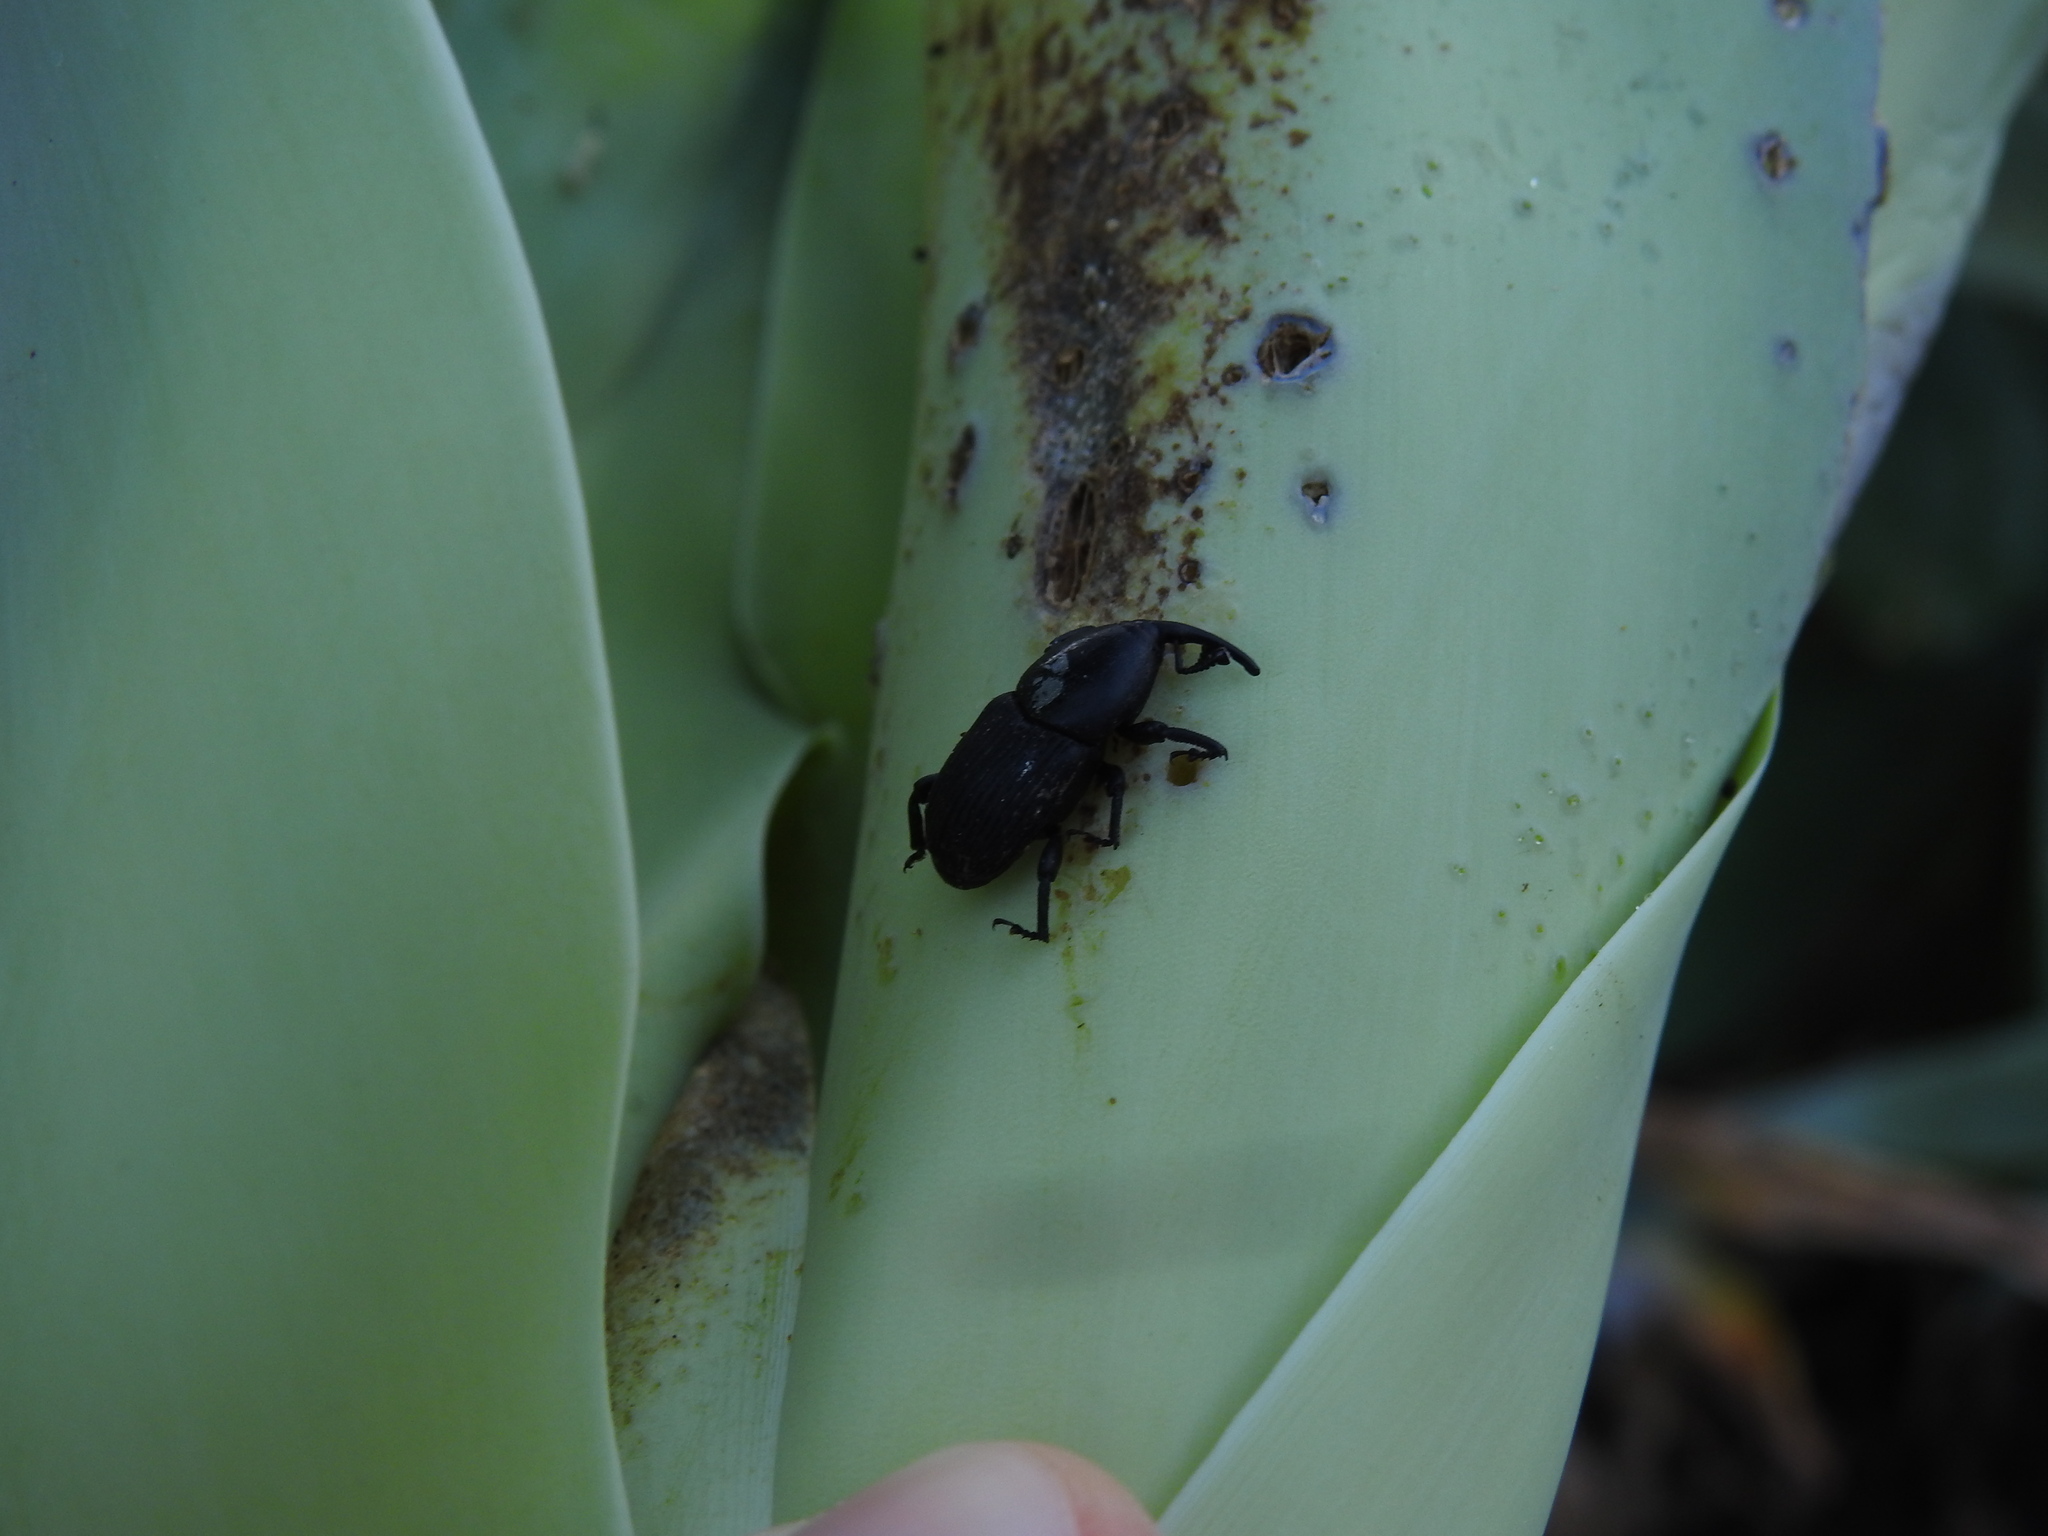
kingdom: Animalia
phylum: Arthropoda
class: Insecta
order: Coleoptera
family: Dryophthoridae
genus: Scyphophorus
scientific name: Scyphophorus acupunctatus
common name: Weevil
